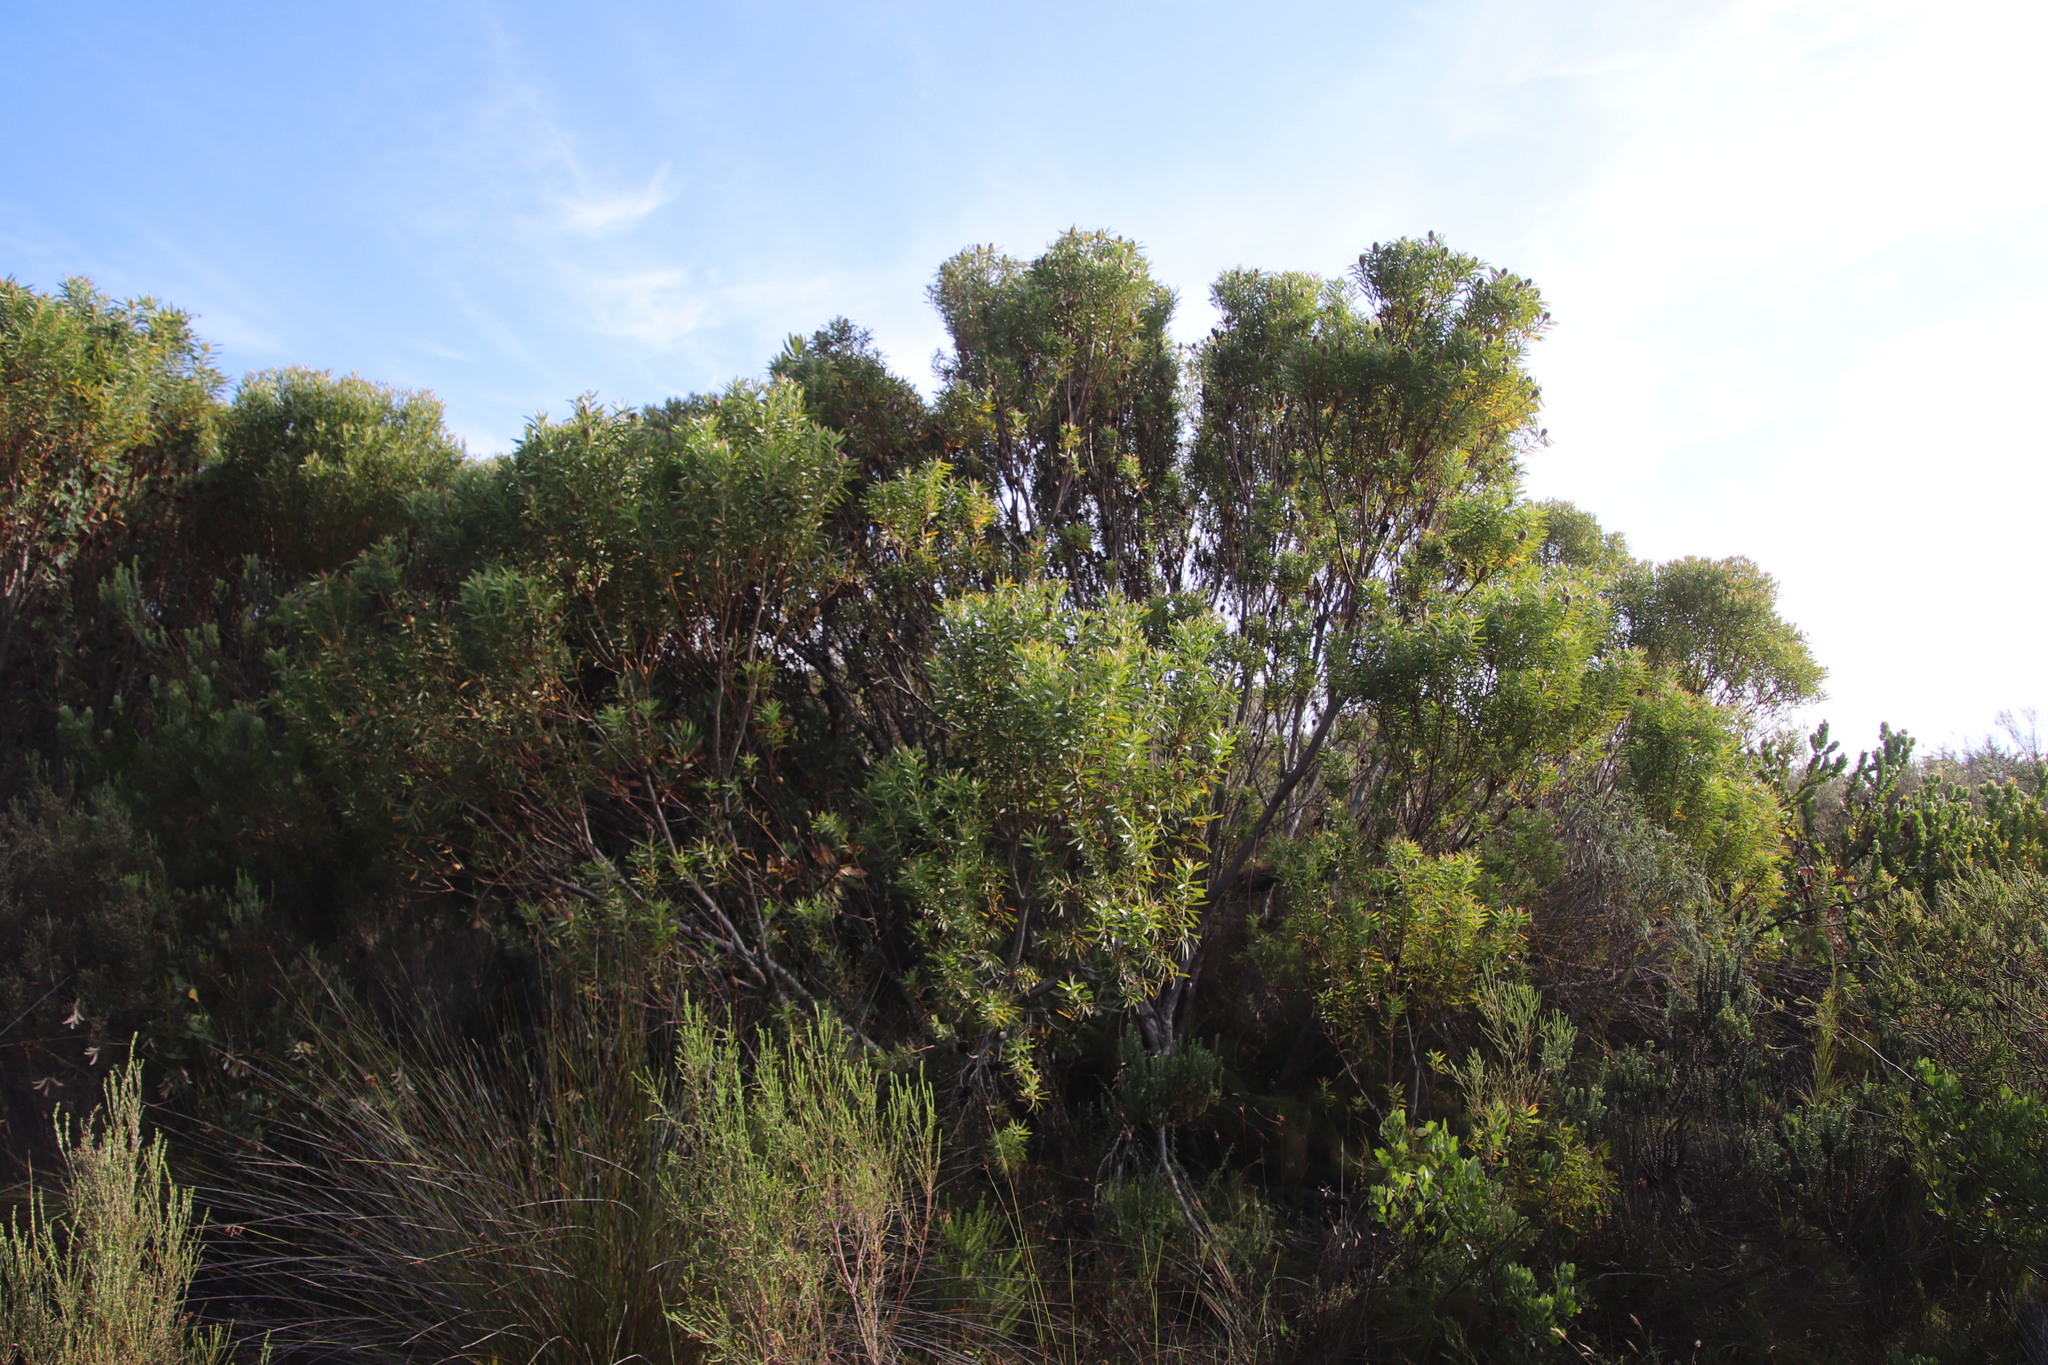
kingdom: Plantae
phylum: Tracheophyta
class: Magnoliopsida
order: Proteales
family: Proteaceae
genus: Leucadendron
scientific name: Leucadendron coniferum
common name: Dune conebush
